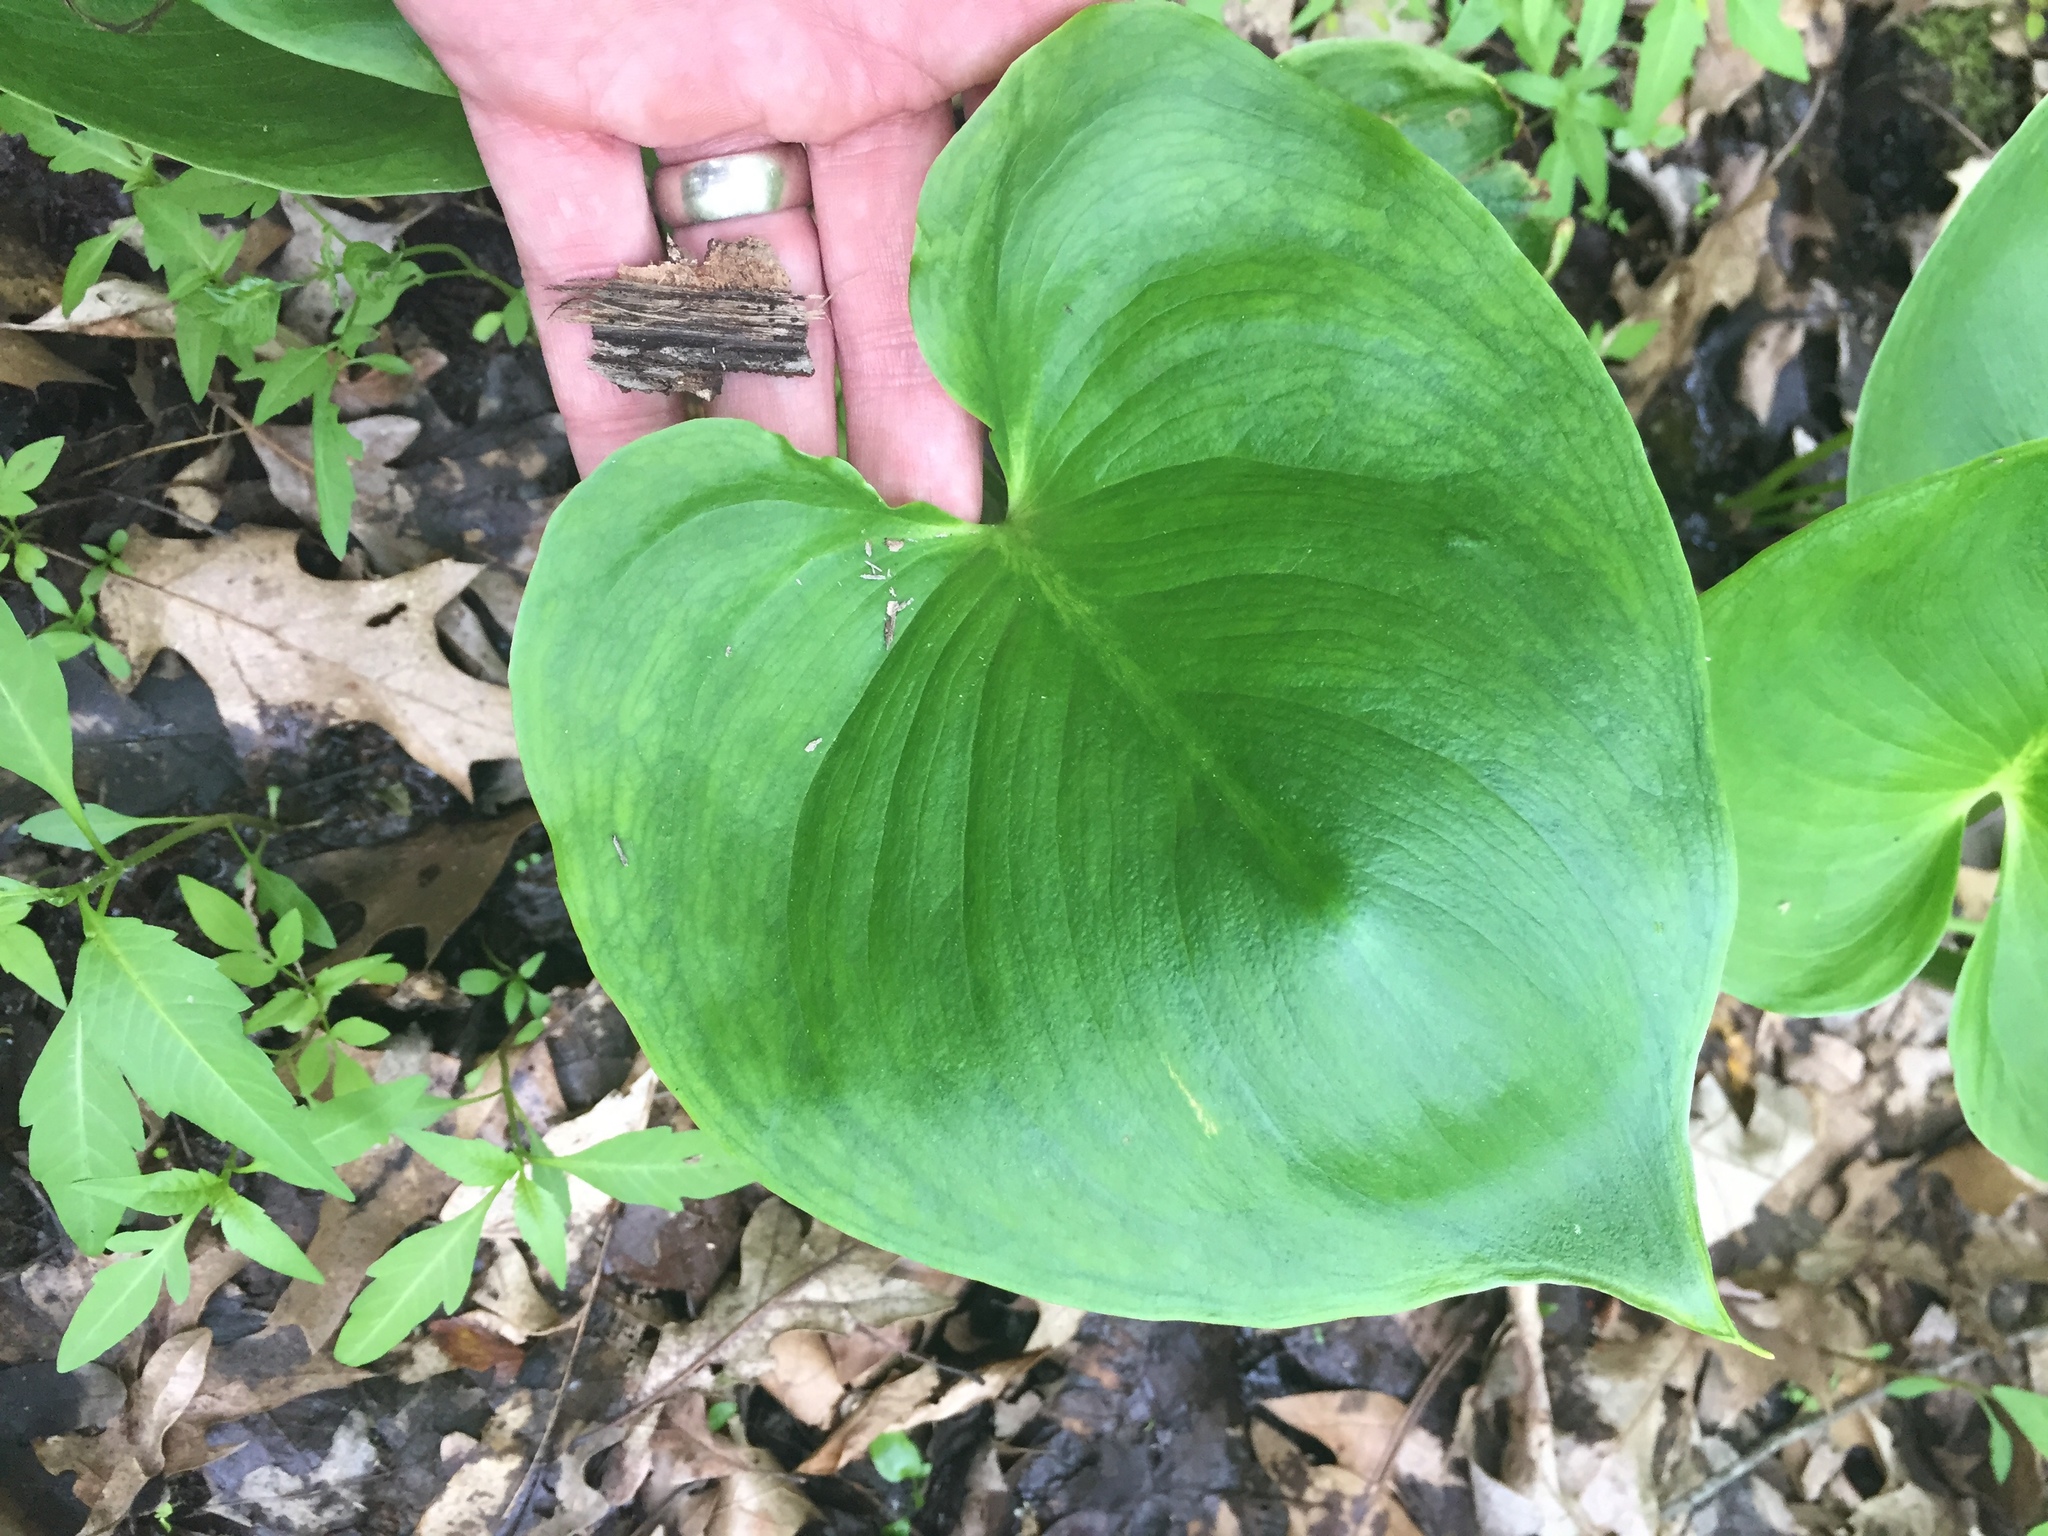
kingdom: Plantae
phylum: Tracheophyta
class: Liliopsida
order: Alismatales
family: Araceae
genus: Calla
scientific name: Calla palustris
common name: Bog arum
